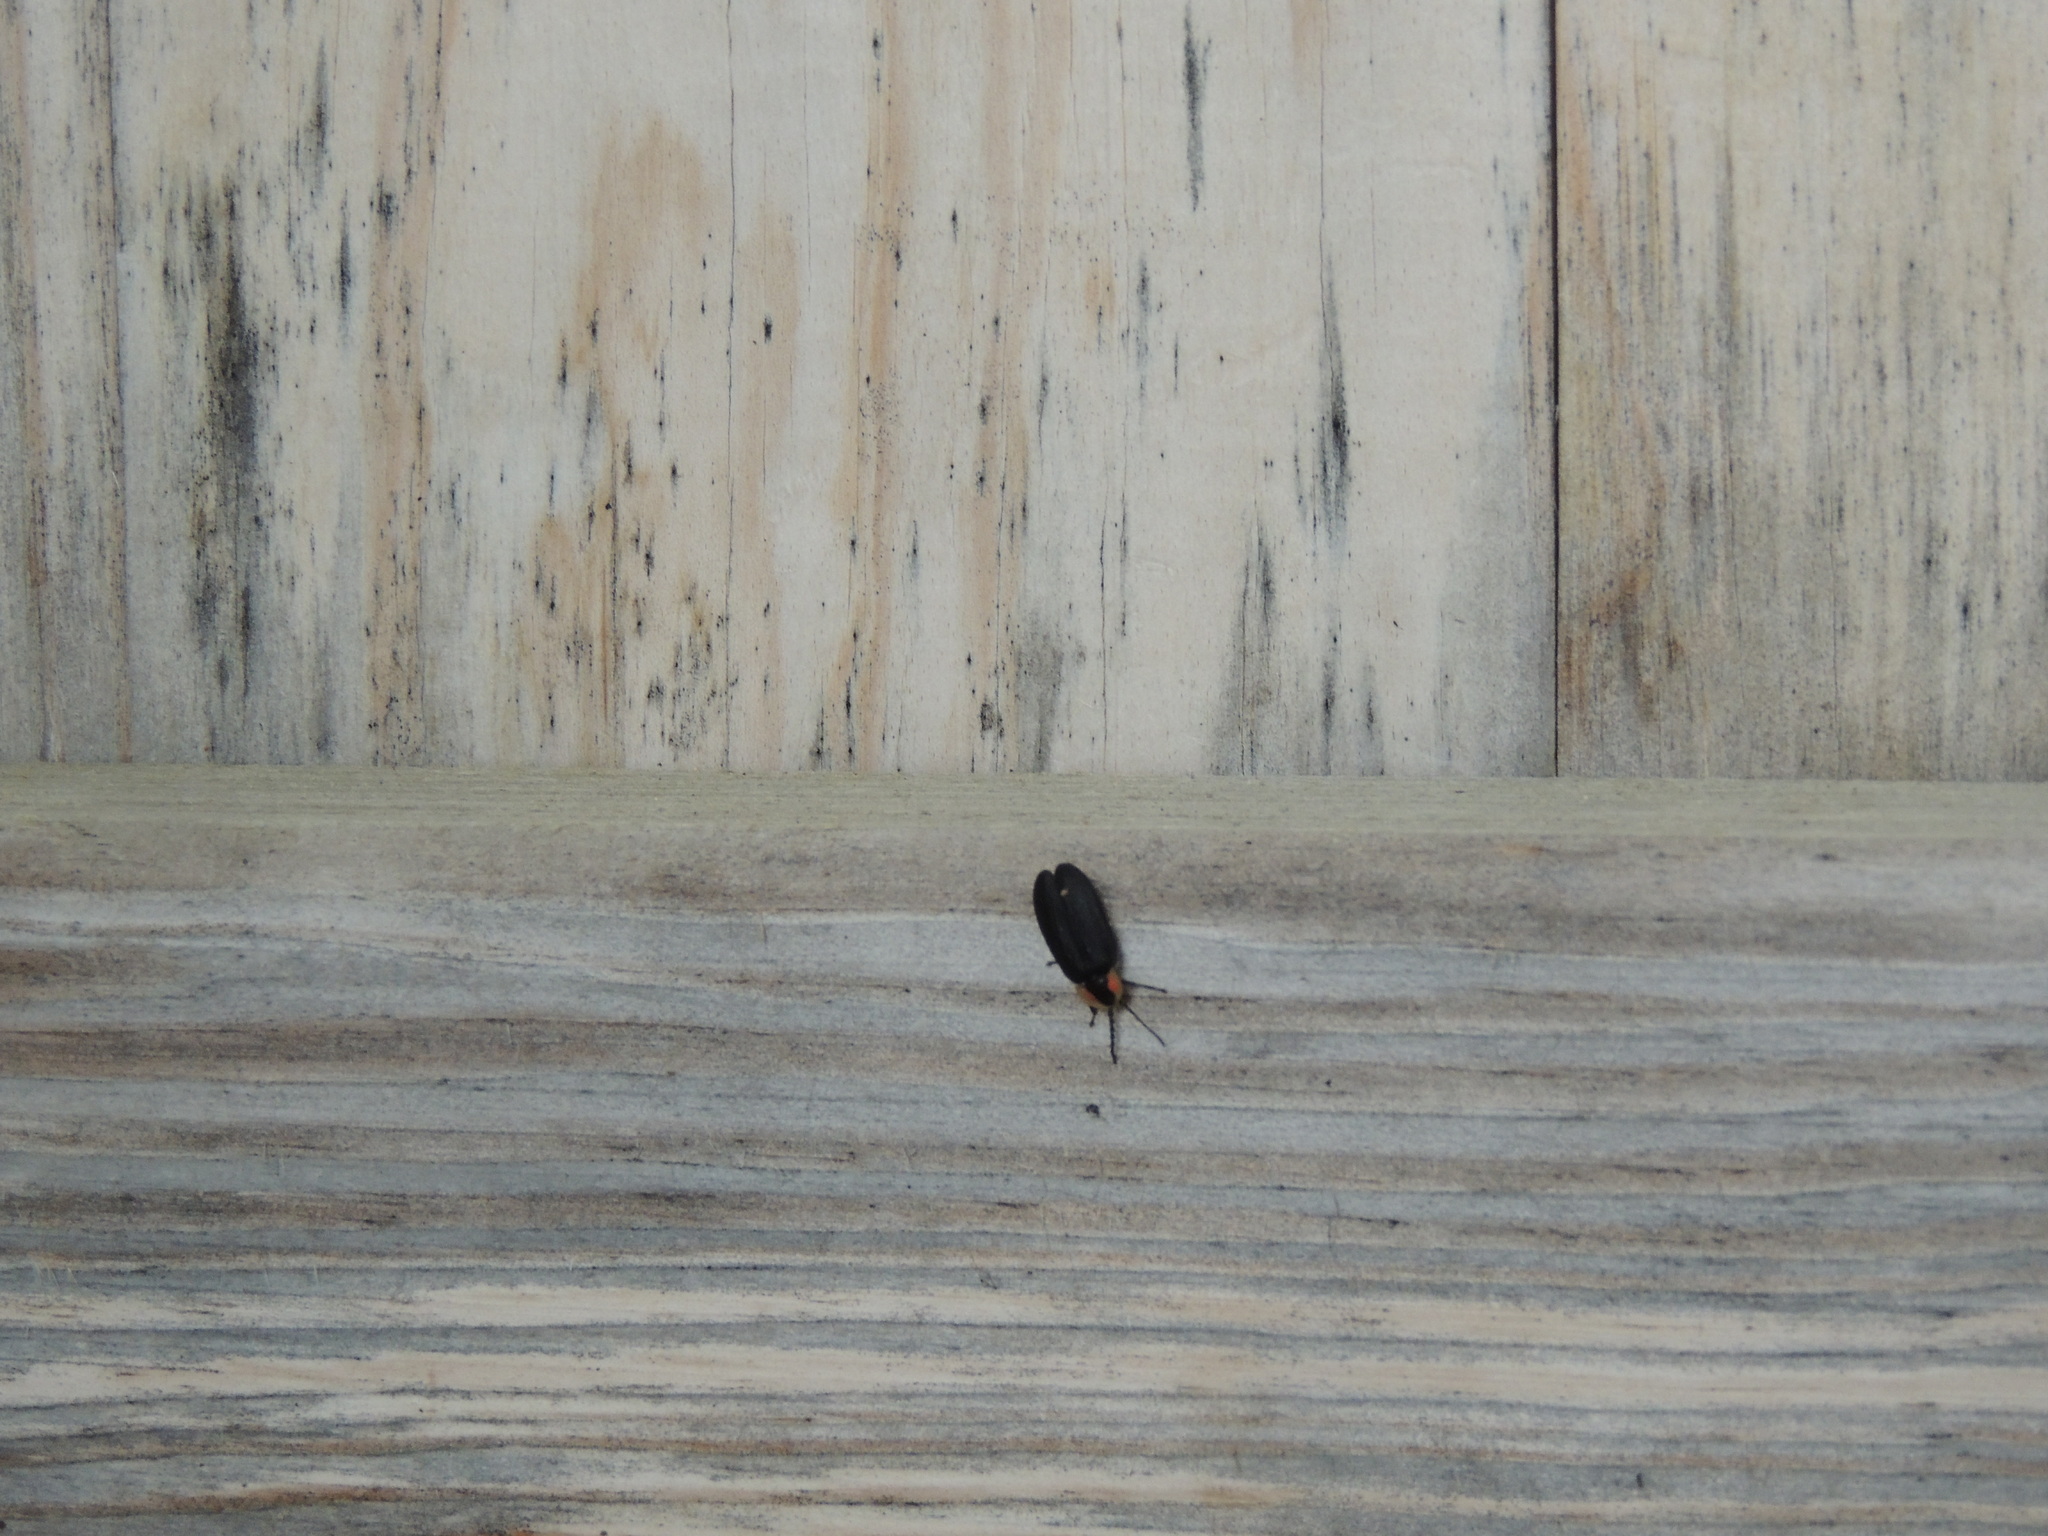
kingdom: Animalia
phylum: Arthropoda
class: Insecta
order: Coleoptera
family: Lampyridae
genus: Photinus
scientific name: Photinus corrusca
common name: Winter firefly
